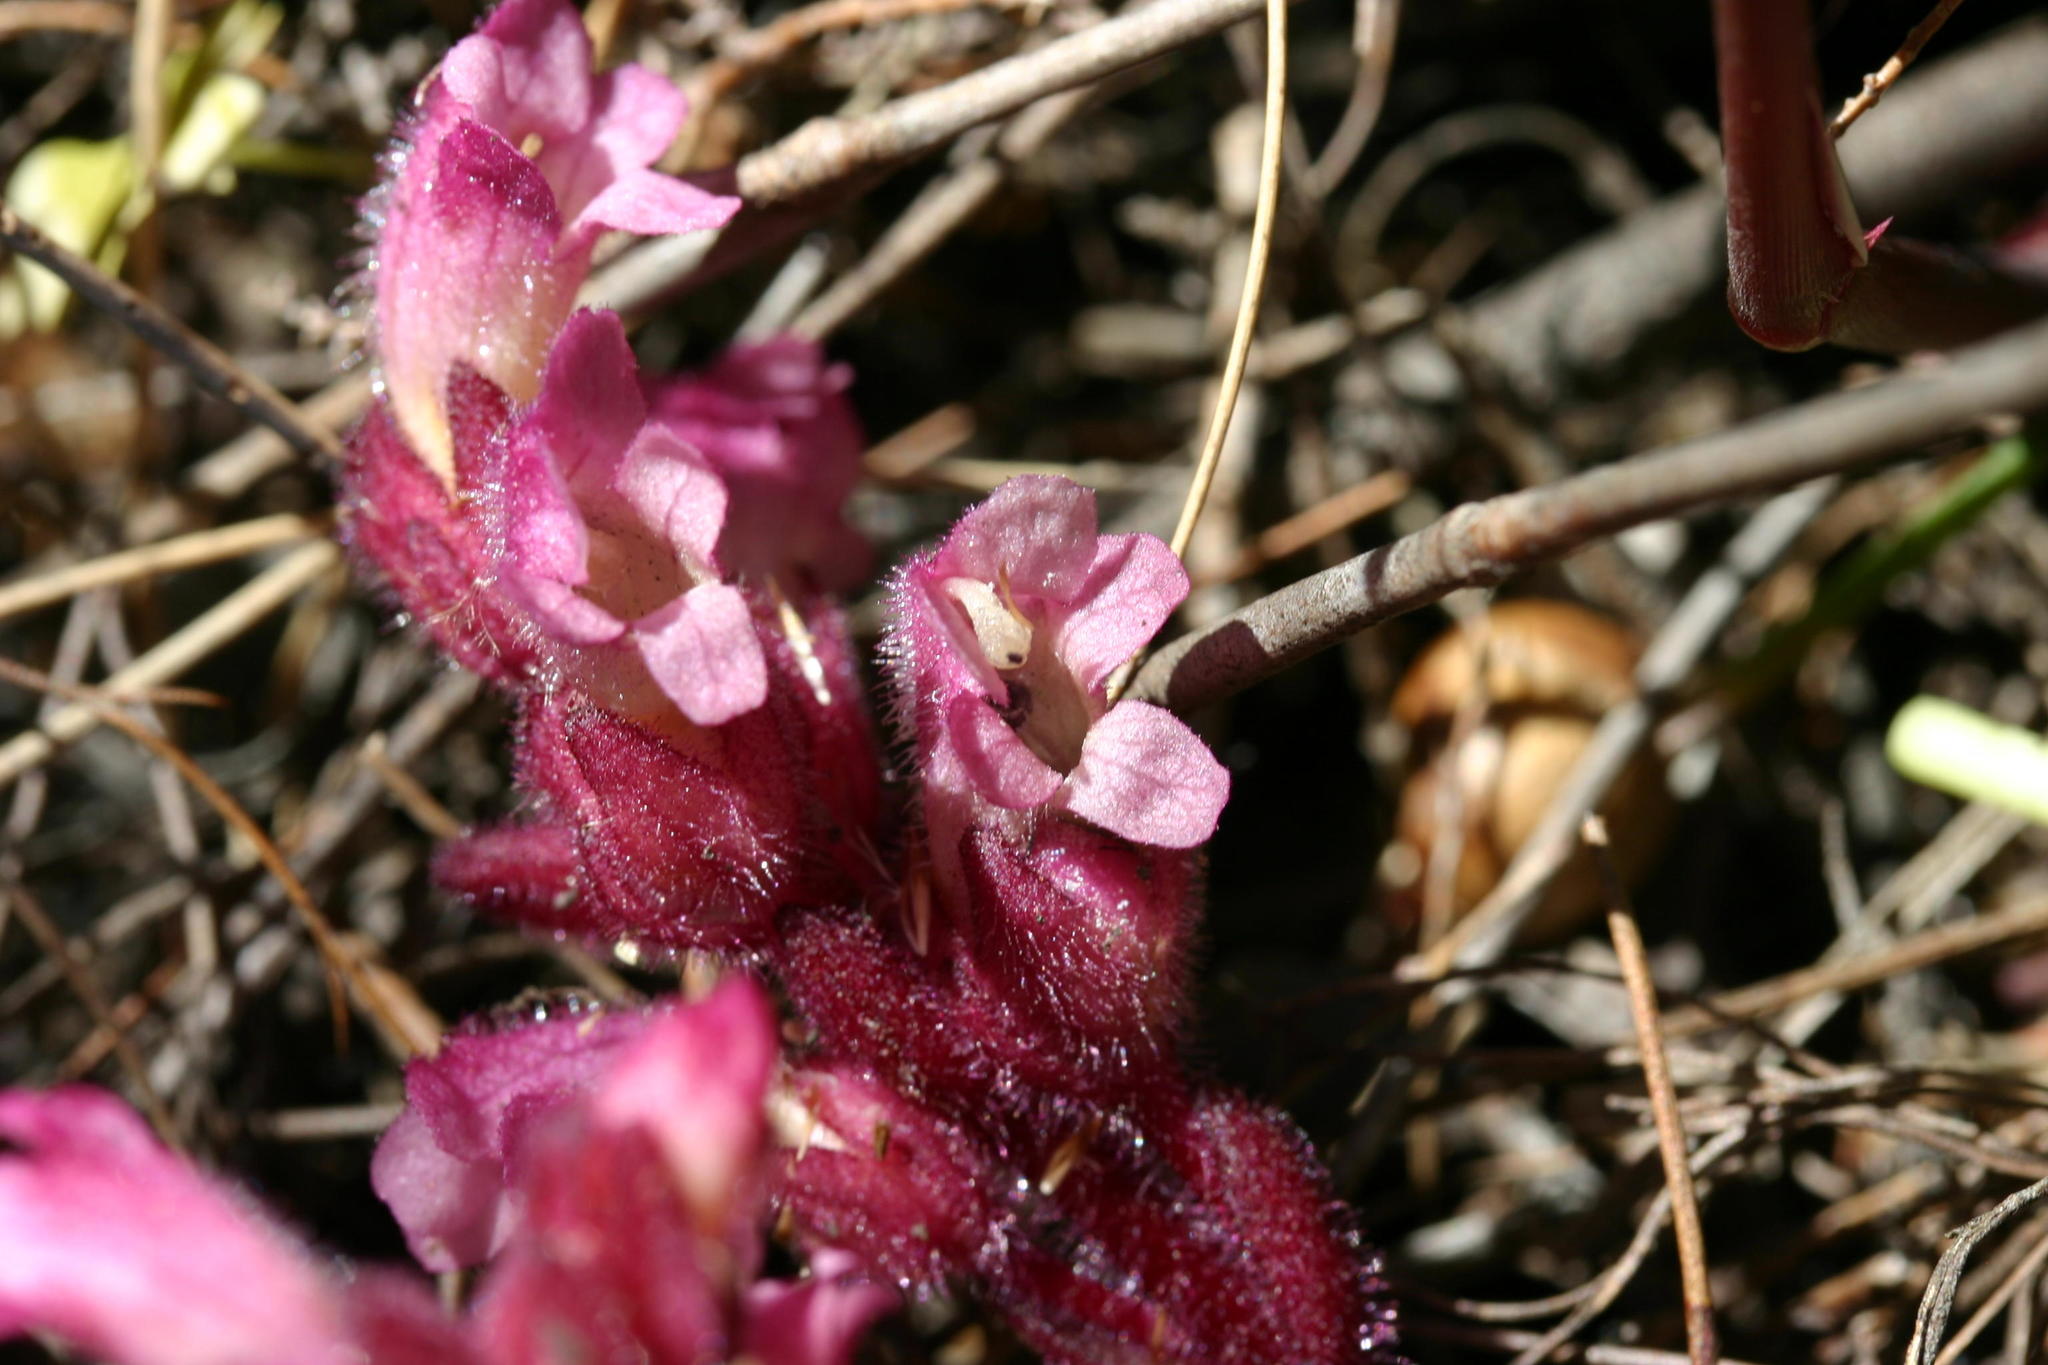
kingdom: Plantae
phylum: Tracheophyta
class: Magnoliopsida
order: Lamiales
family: Orobanchaceae
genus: Harveya
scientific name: Harveya pauciflora
